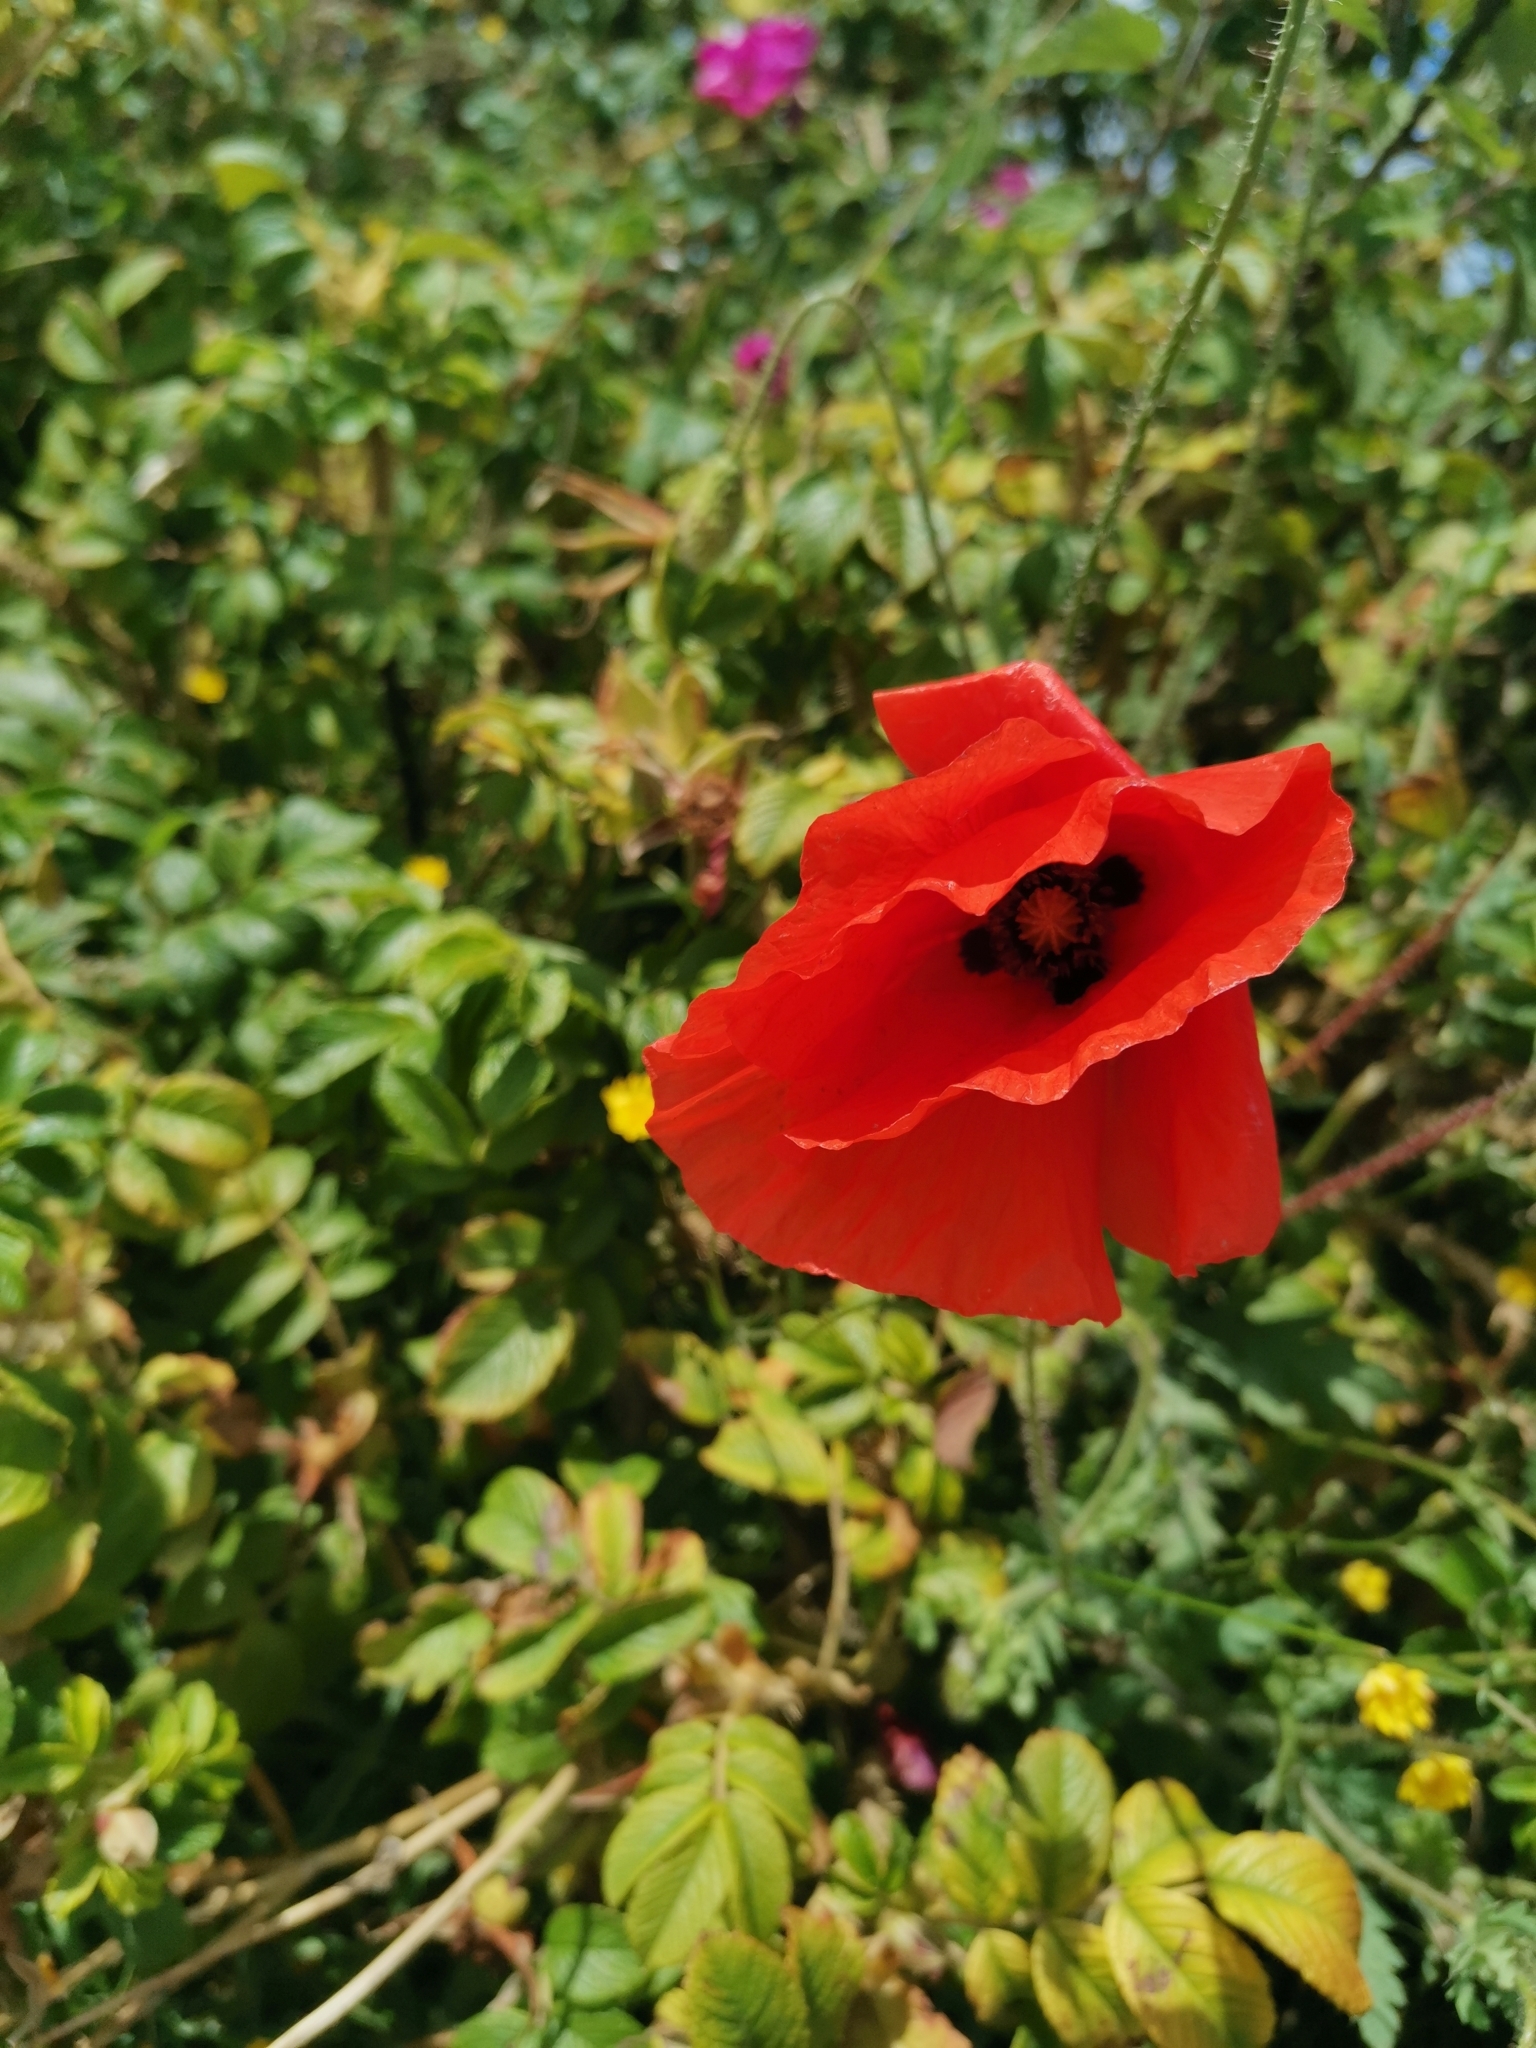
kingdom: Plantae
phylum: Tracheophyta
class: Magnoliopsida
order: Ranunculales
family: Papaveraceae
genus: Papaver
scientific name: Papaver rhoeas
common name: Corn poppy
